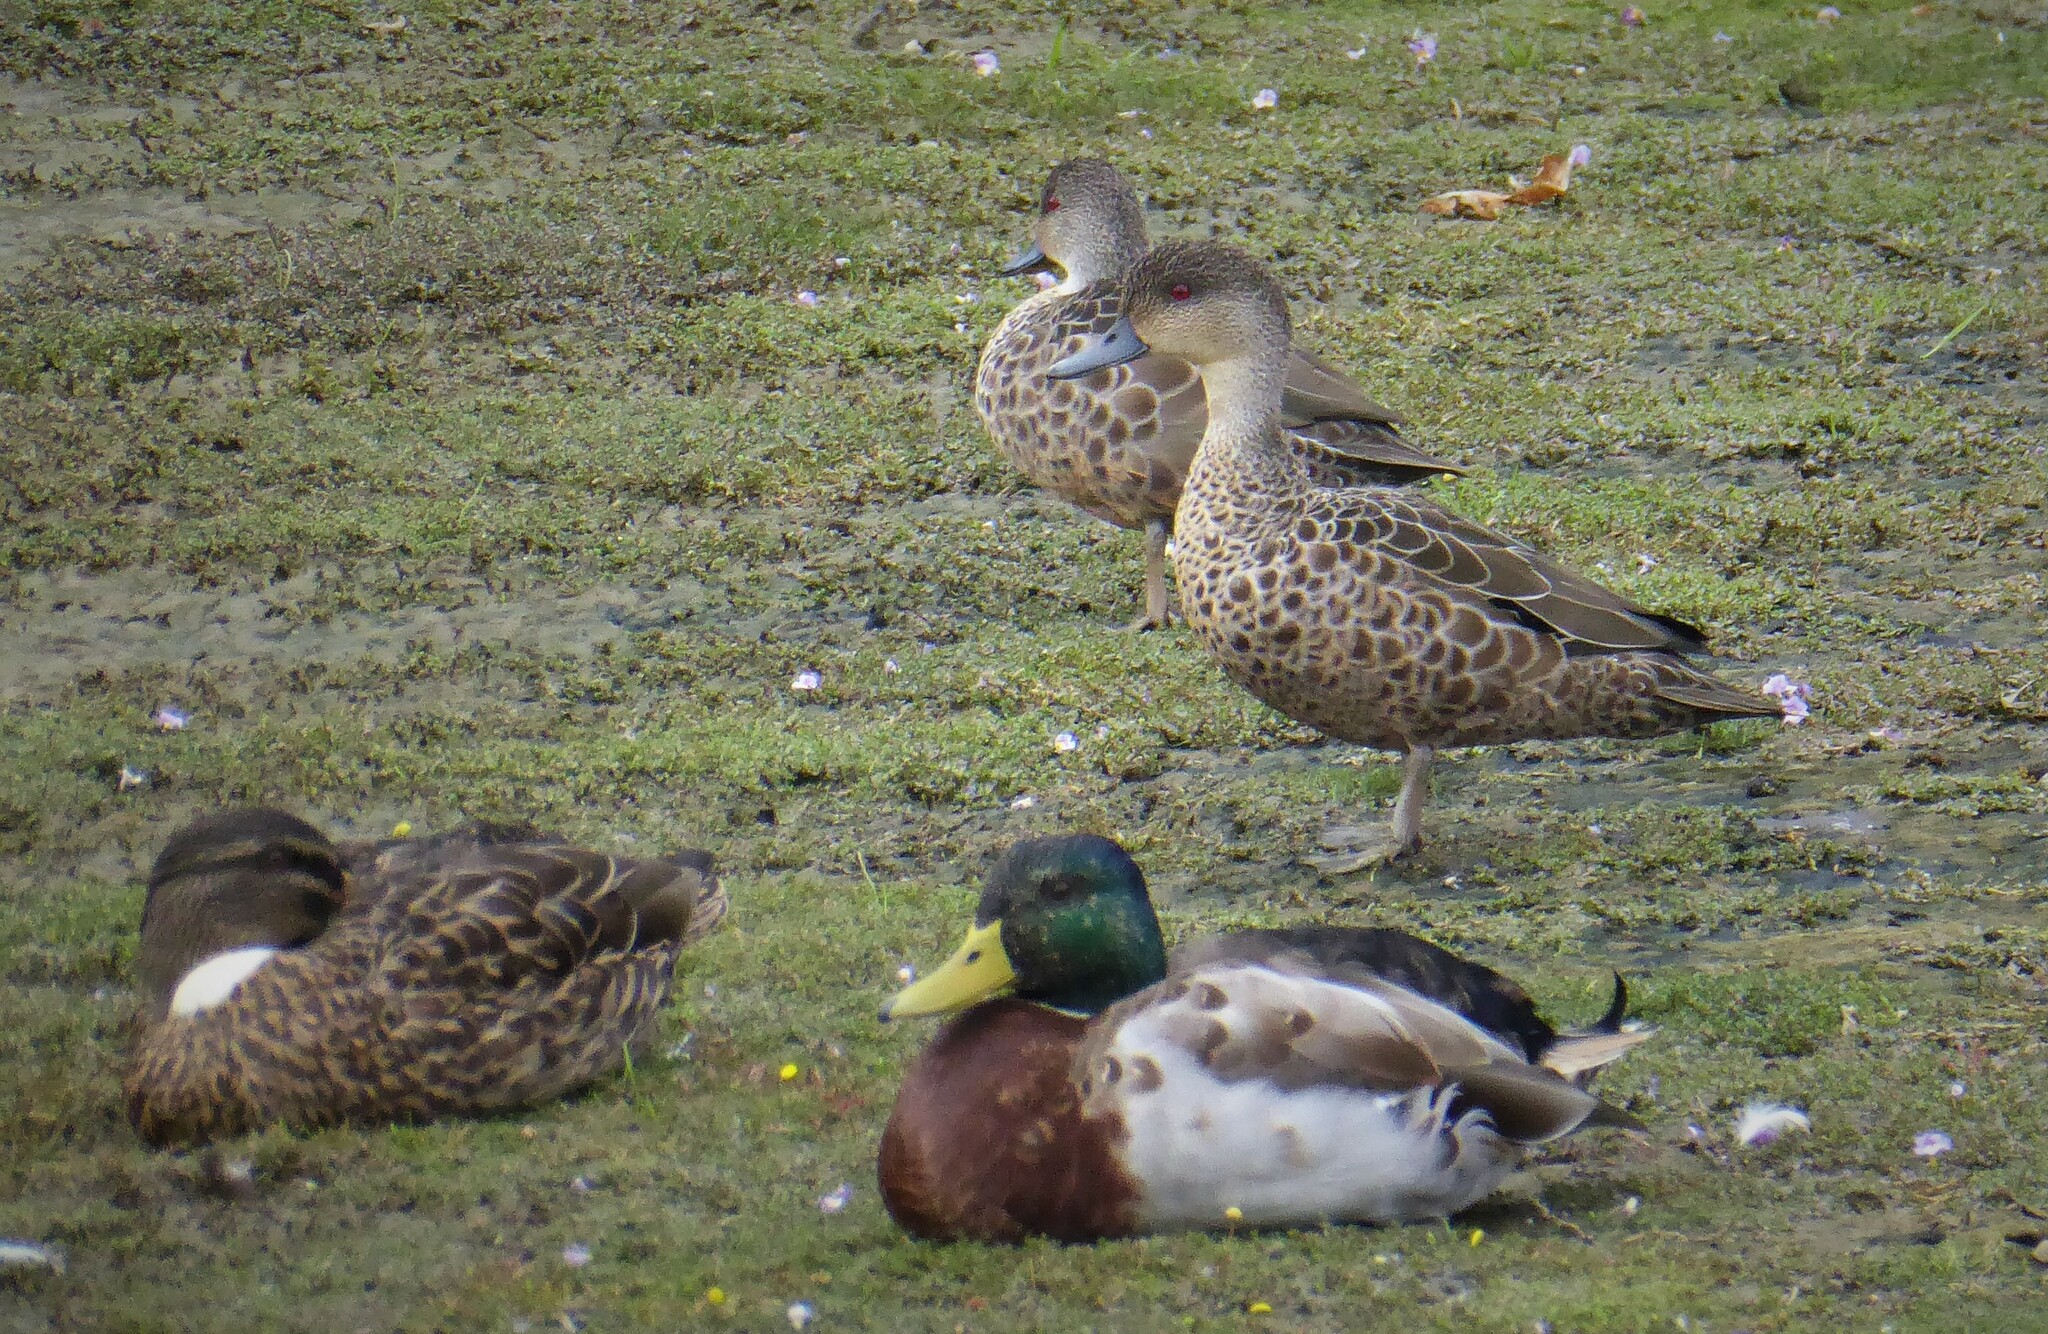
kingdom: Animalia
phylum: Chordata
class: Aves
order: Anseriformes
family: Anatidae
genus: Anas
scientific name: Anas gracilis
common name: Grey teal
